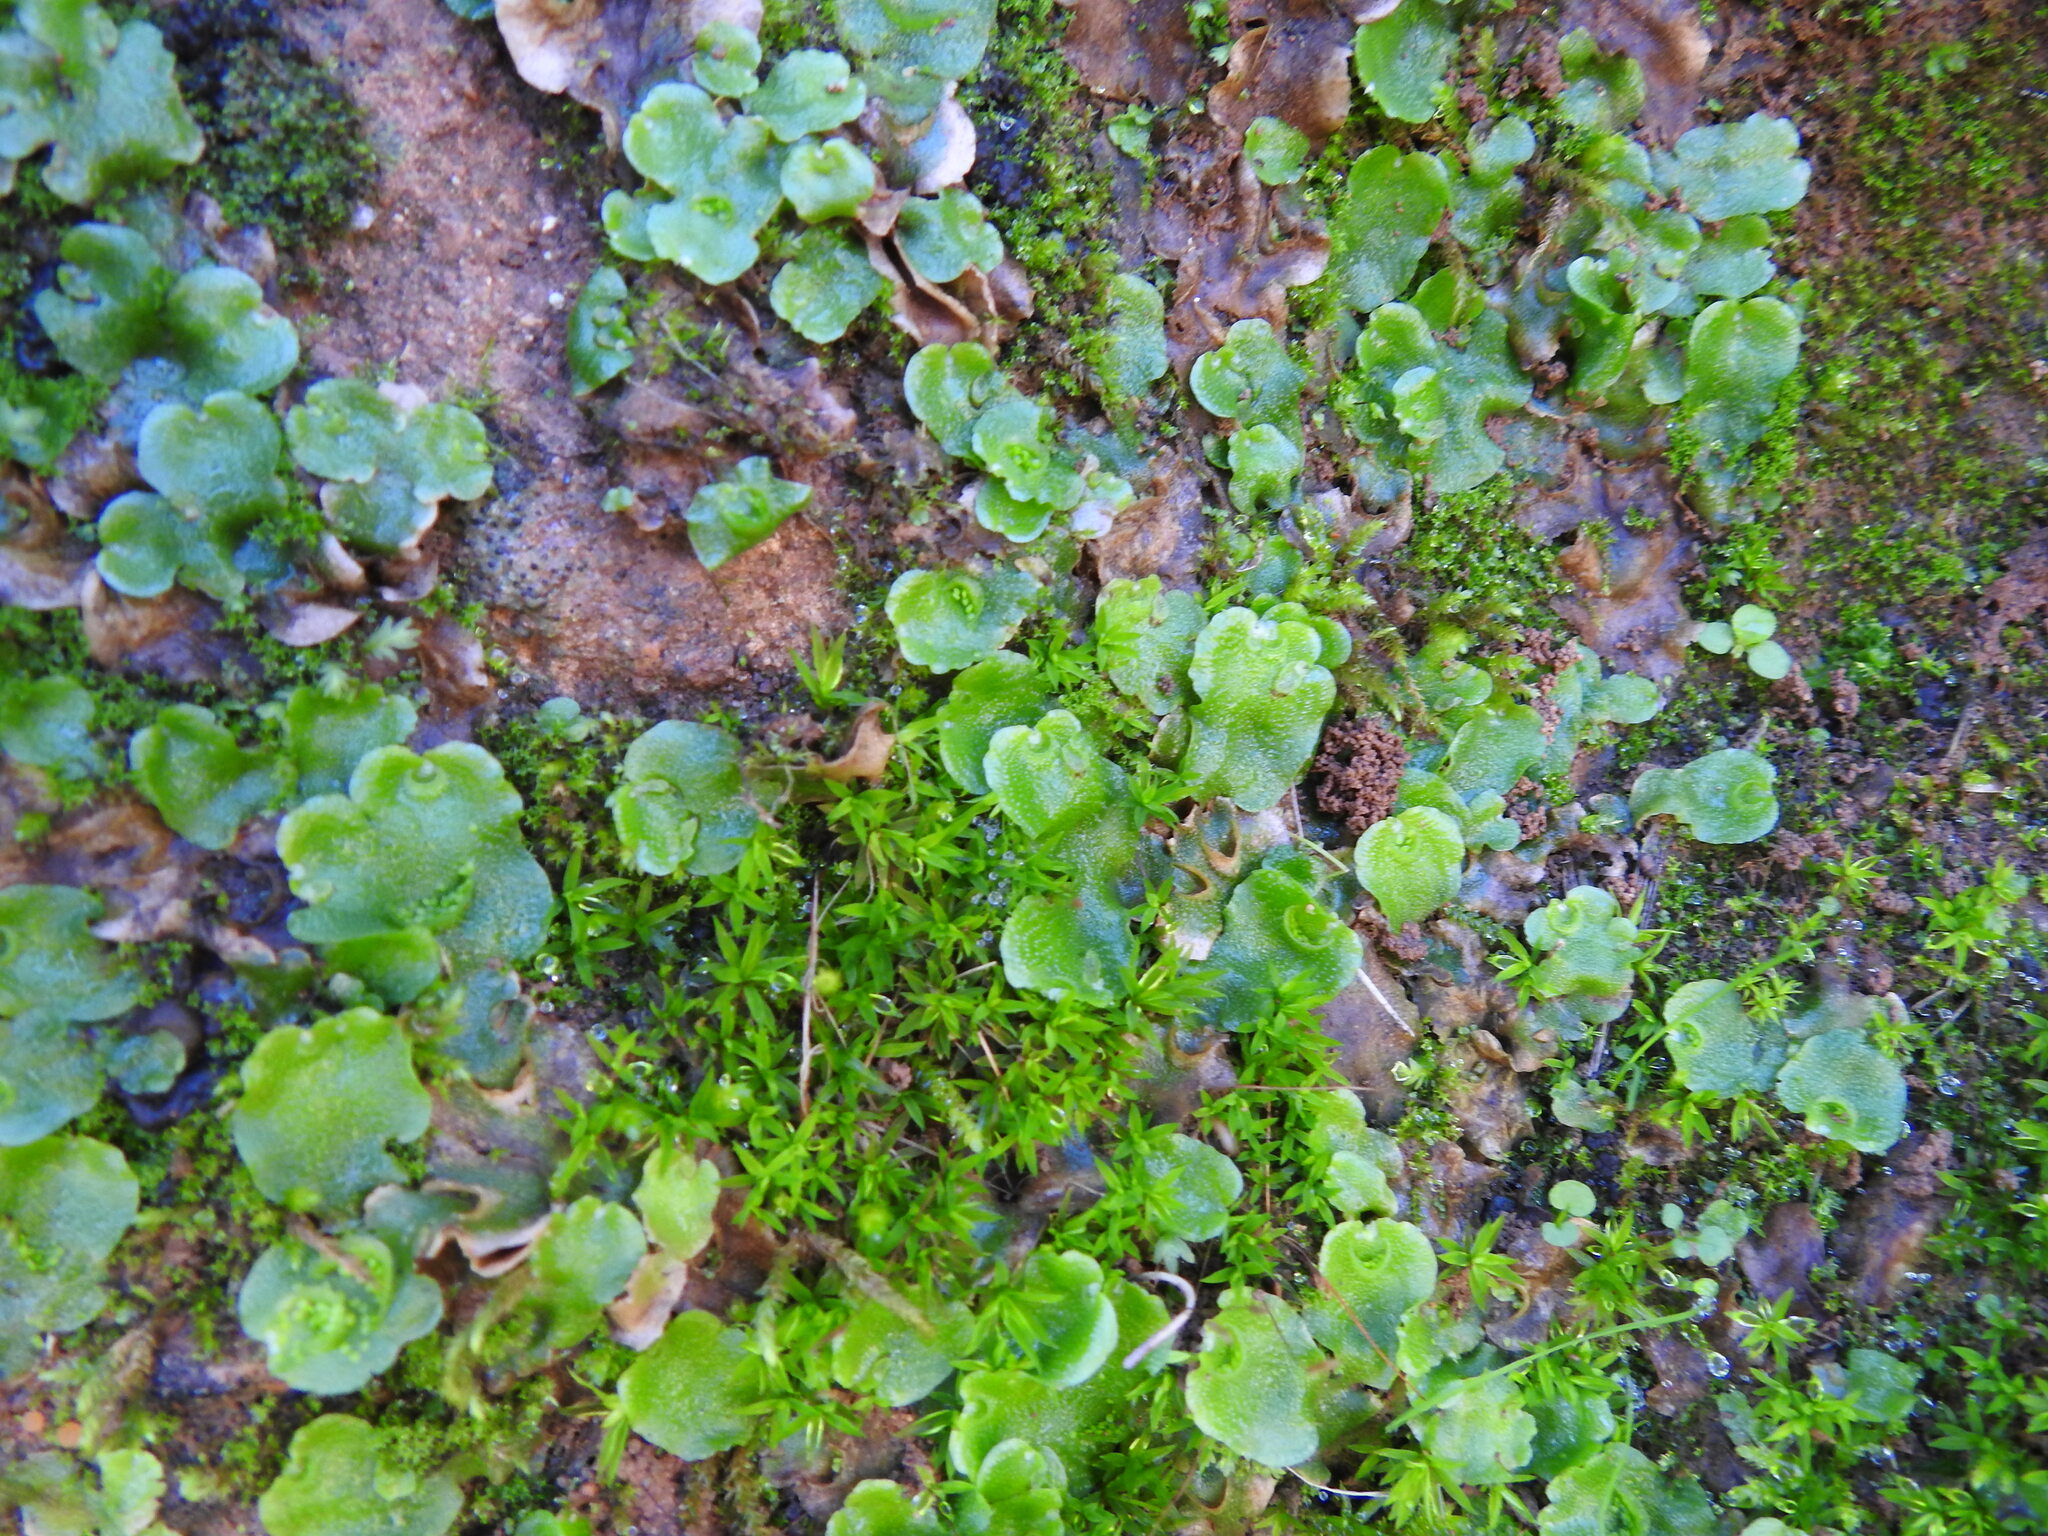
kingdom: Plantae
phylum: Marchantiophyta
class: Marchantiopsida
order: Lunulariales
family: Lunulariaceae
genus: Lunularia
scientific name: Lunularia cruciata
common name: Crescent-cup liverwort
